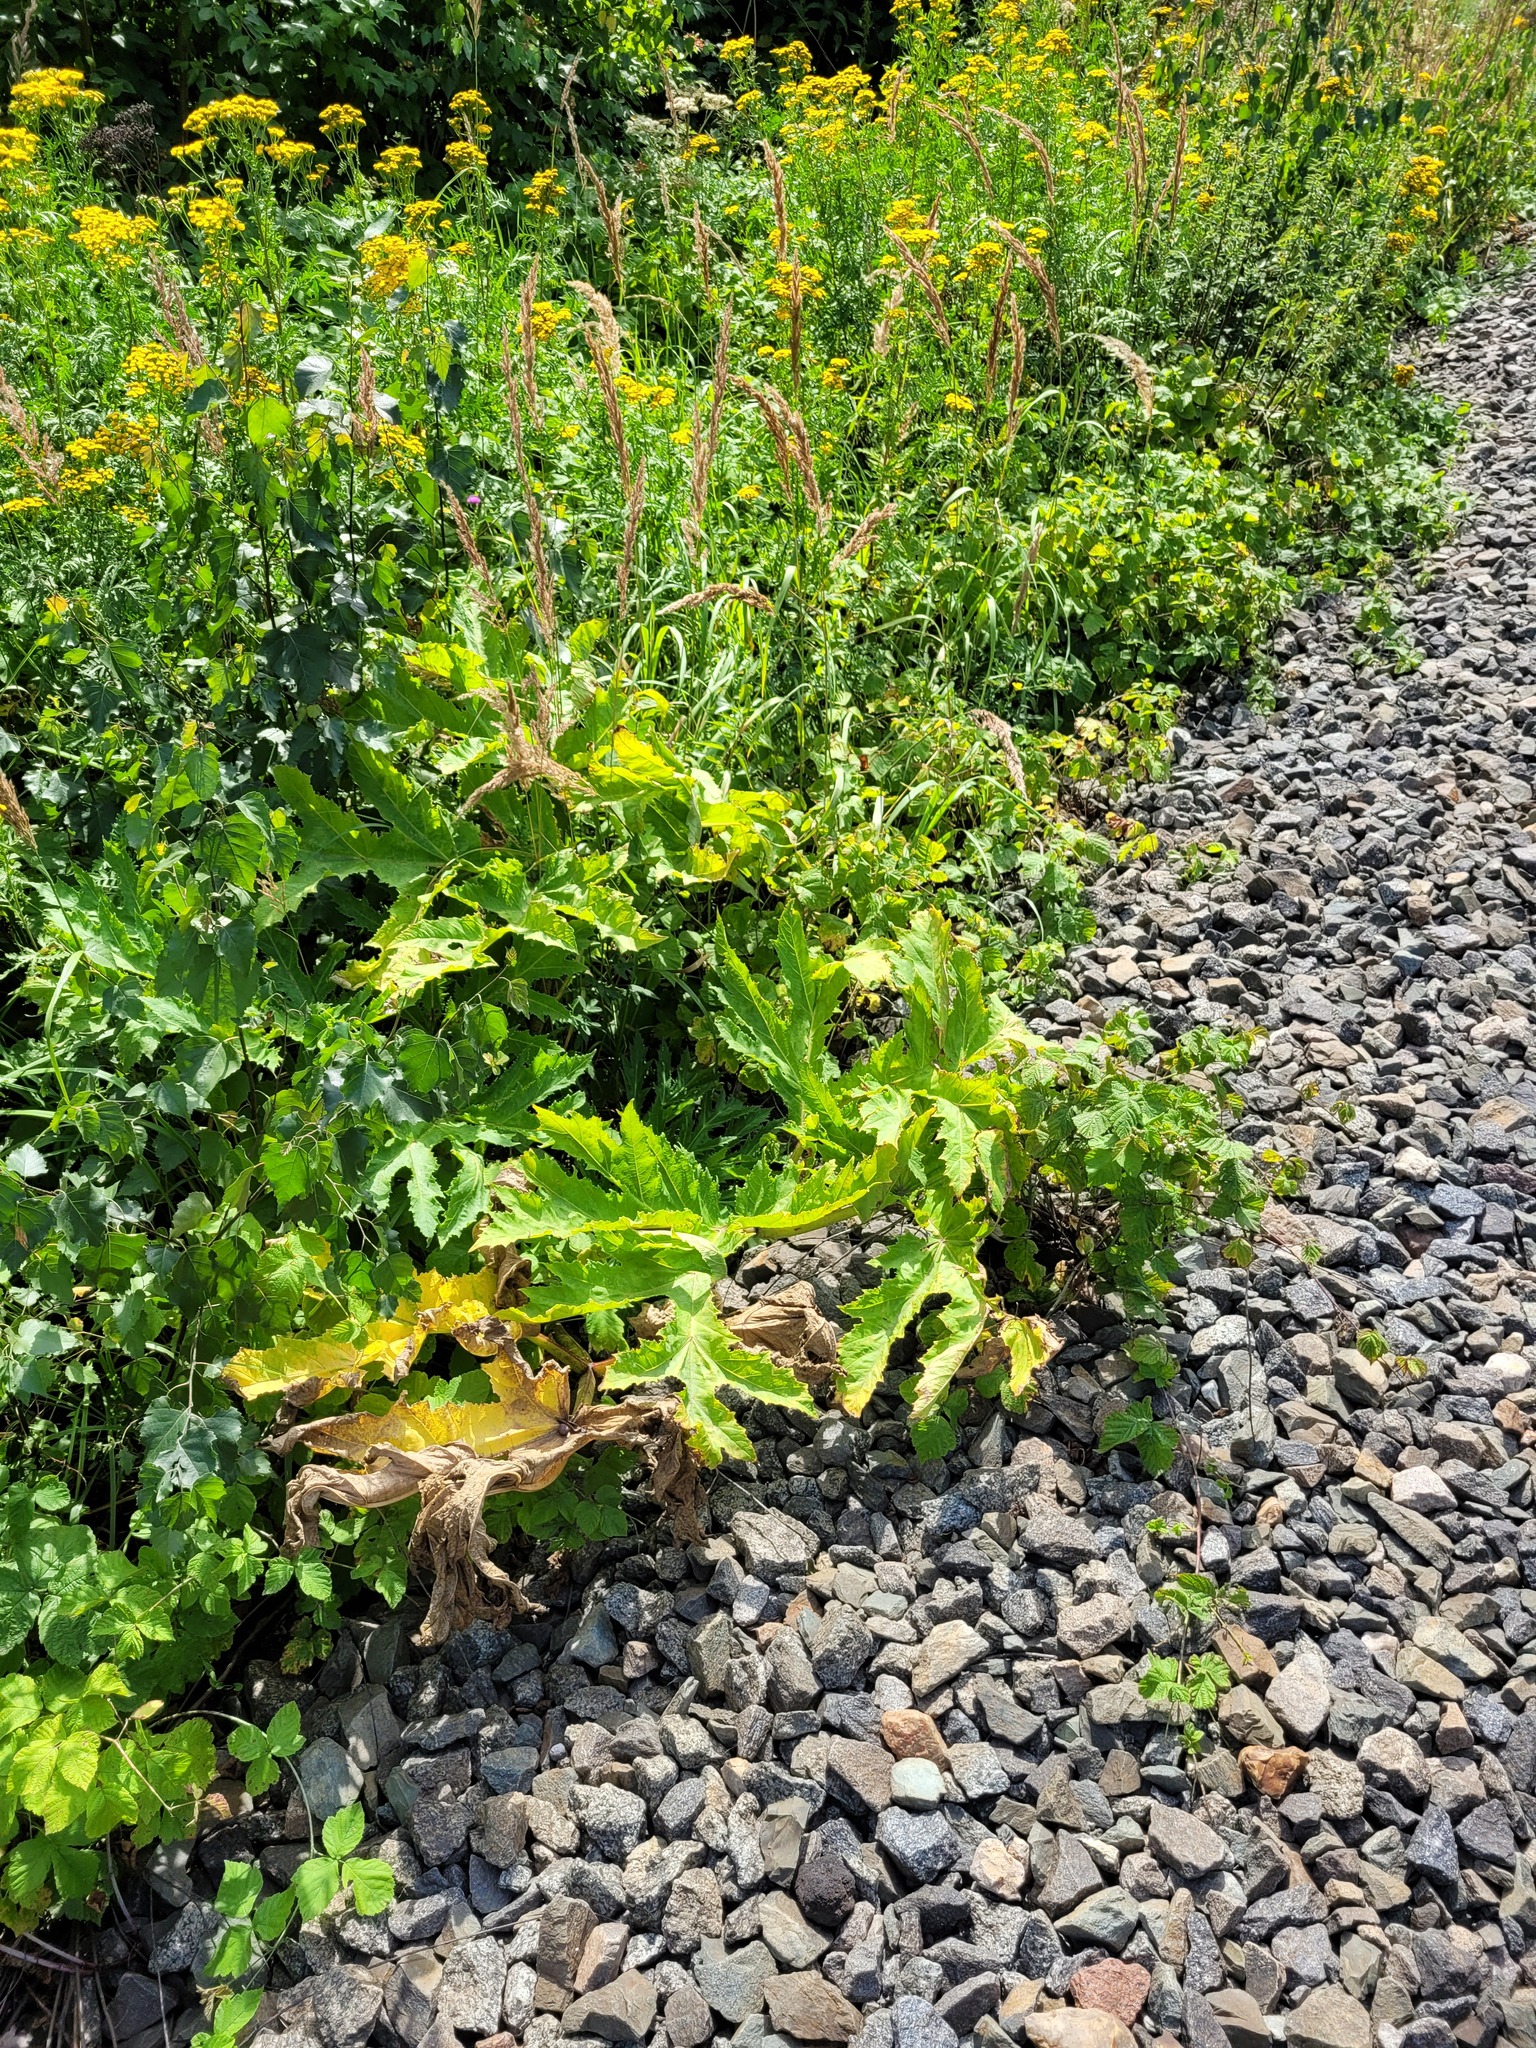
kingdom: Plantae
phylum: Tracheophyta
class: Magnoliopsida
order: Apiales
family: Apiaceae
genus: Heracleum
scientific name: Heracleum sosnowskyi
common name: Sosnowsky's hogweed
